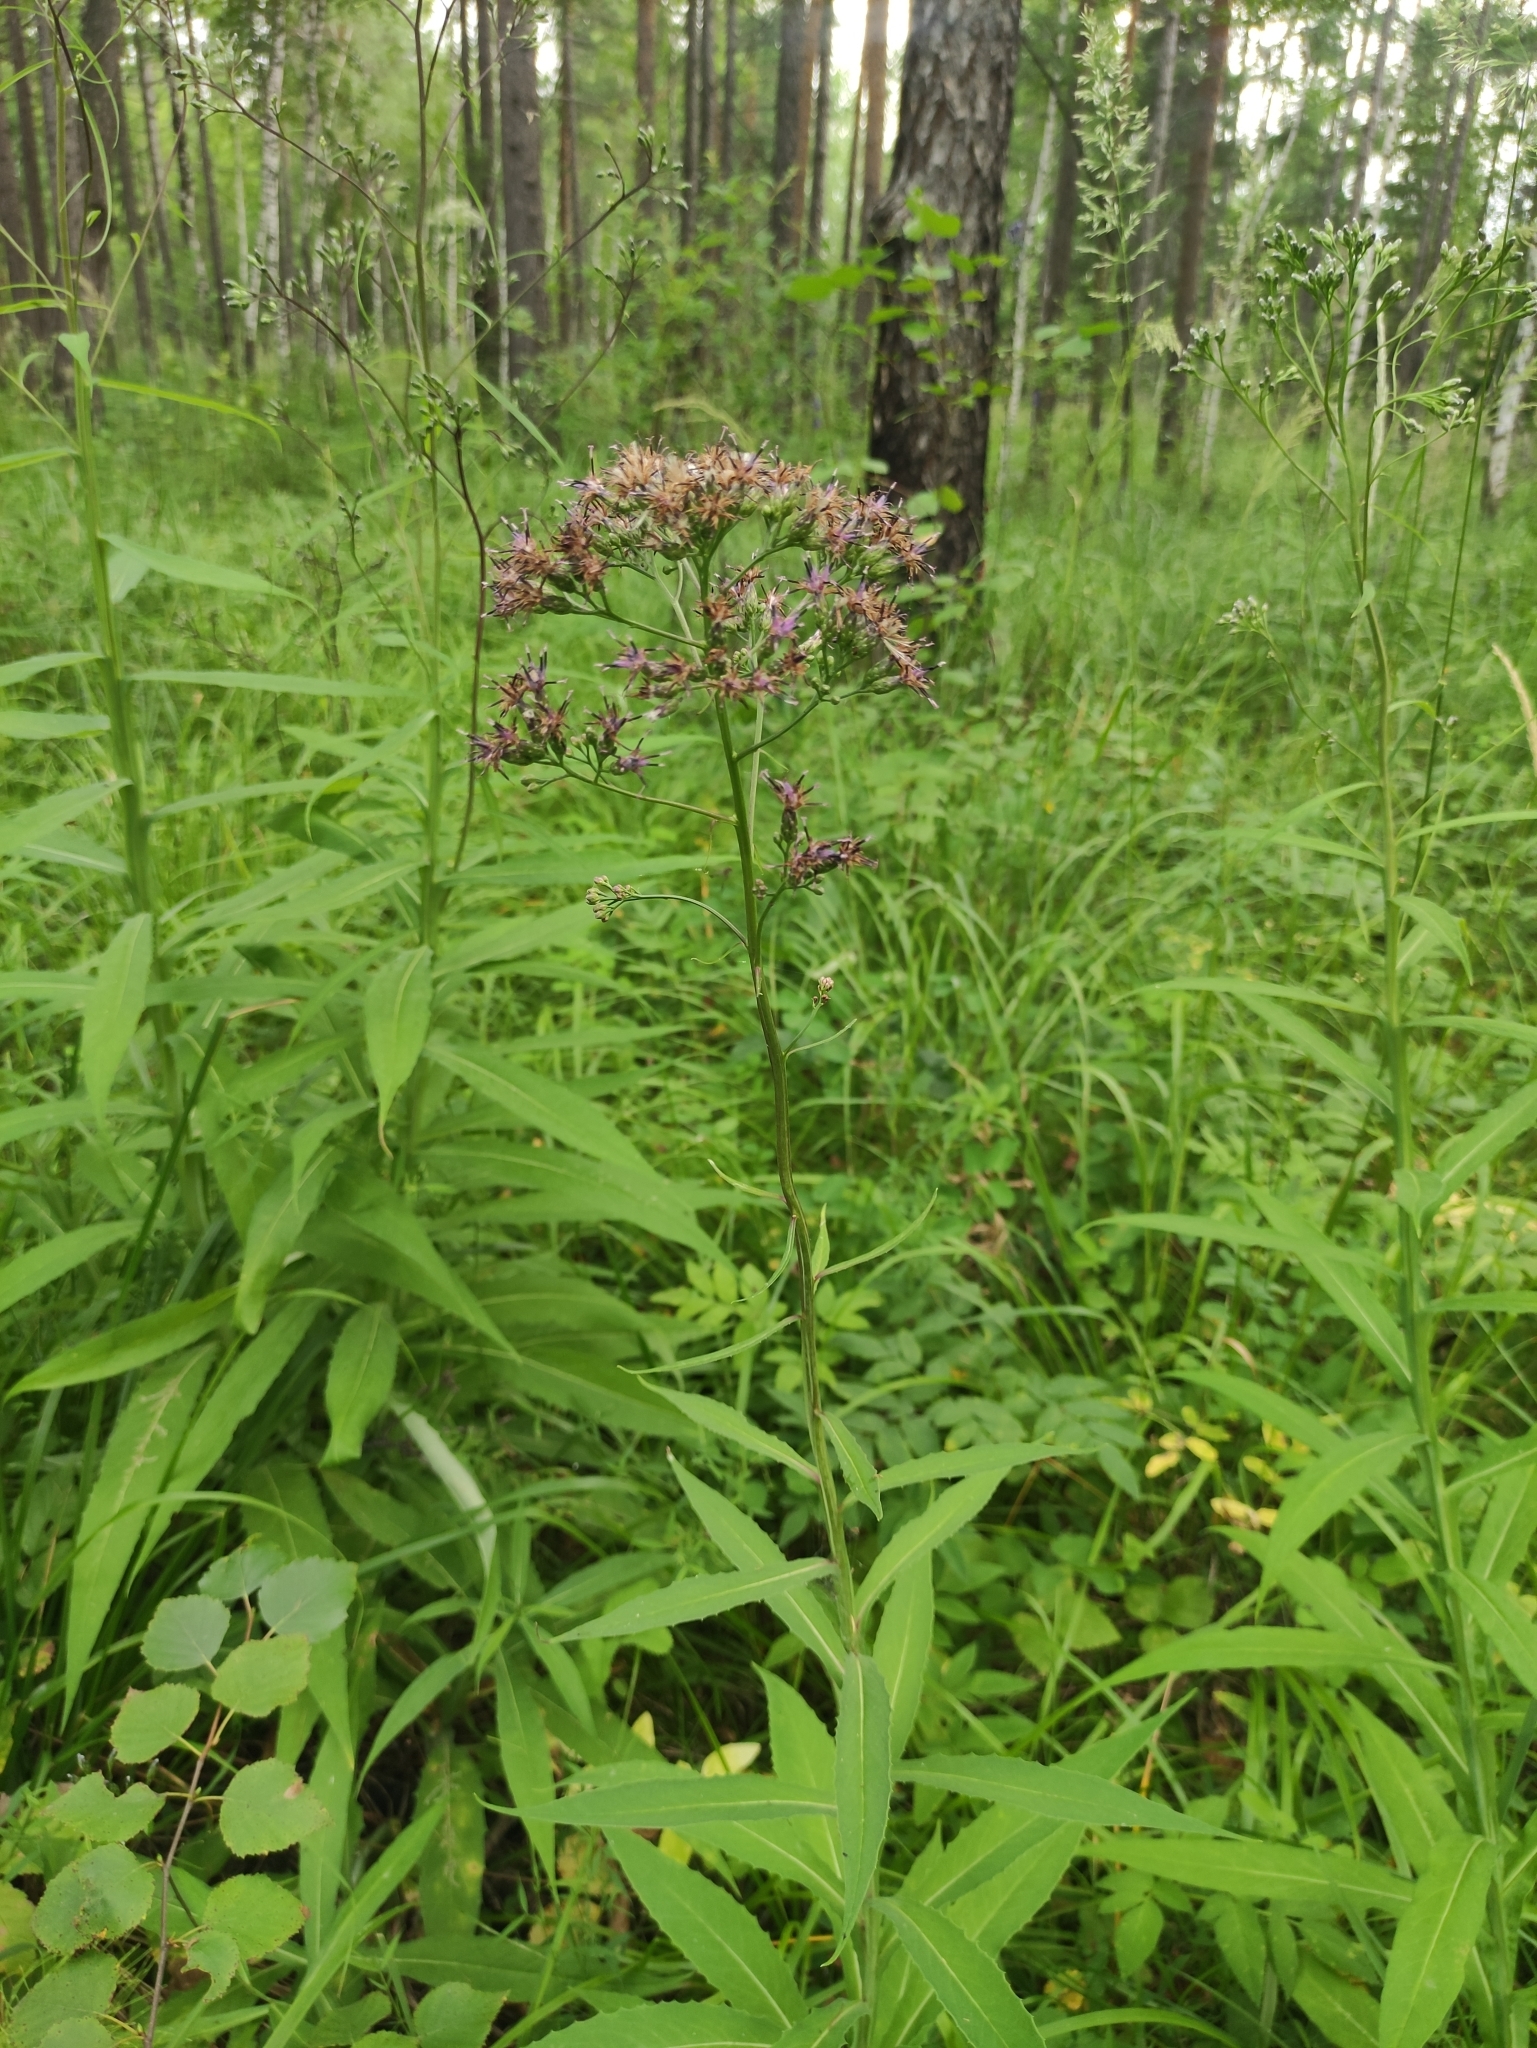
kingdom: Plantae
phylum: Tracheophyta
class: Magnoliopsida
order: Asterales
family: Asteraceae
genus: Saussurea
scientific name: Saussurea parviflora
